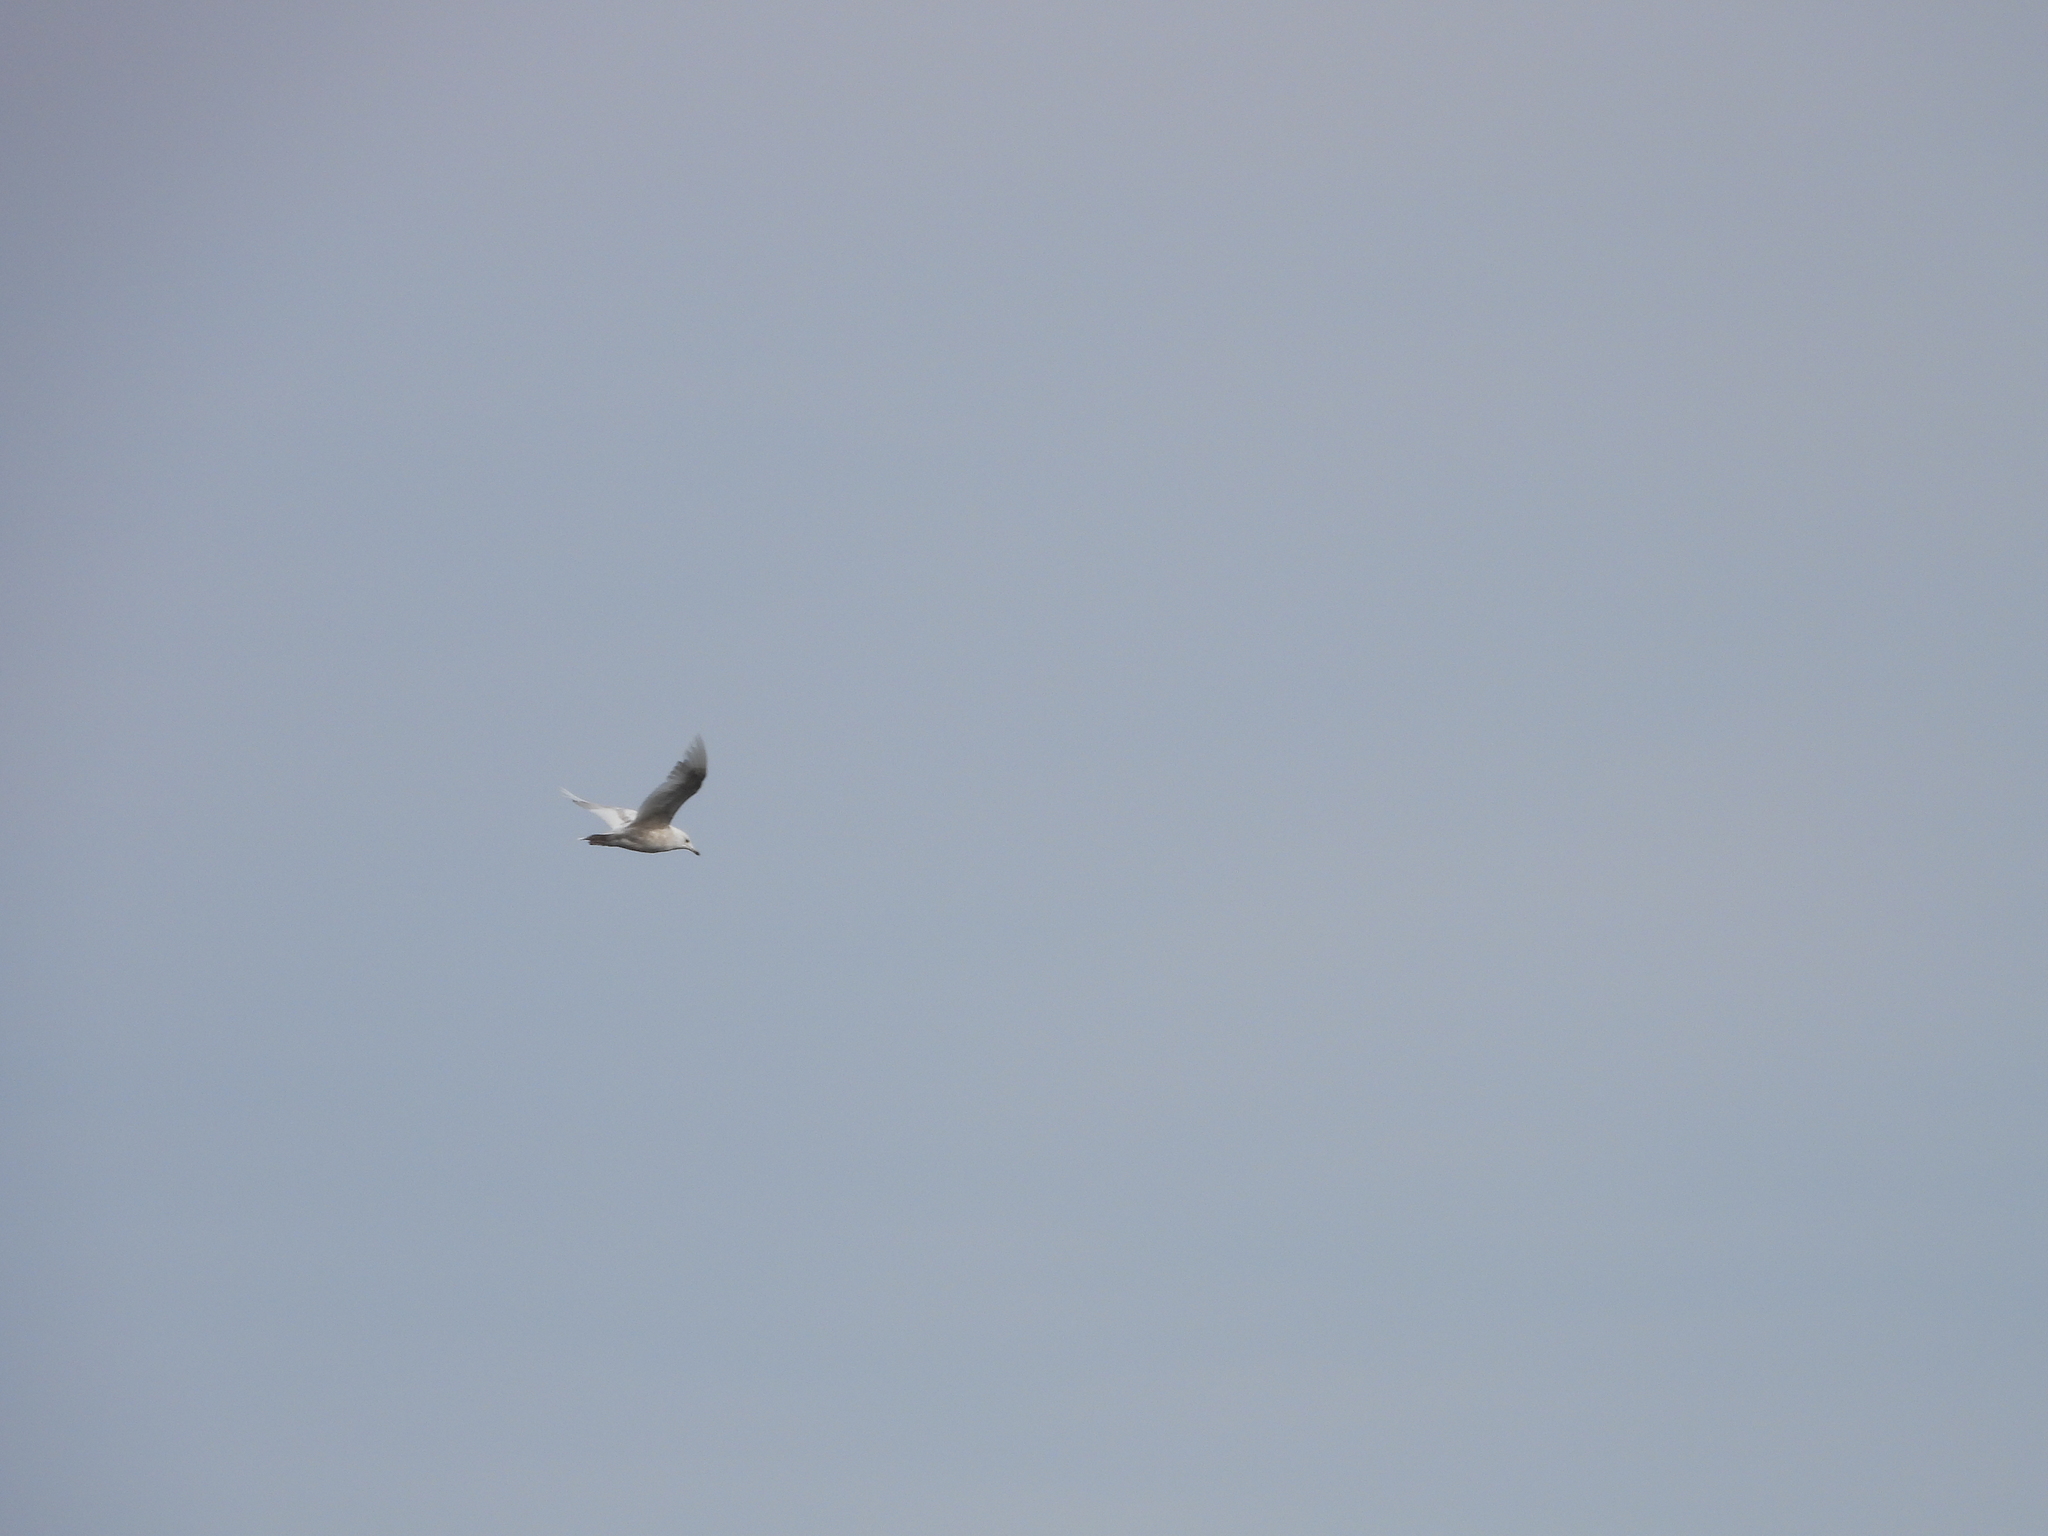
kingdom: Animalia
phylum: Chordata
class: Aves
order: Charadriiformes
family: Laridae
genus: Larus
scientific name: Larus glaucoides
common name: Iceland gull
